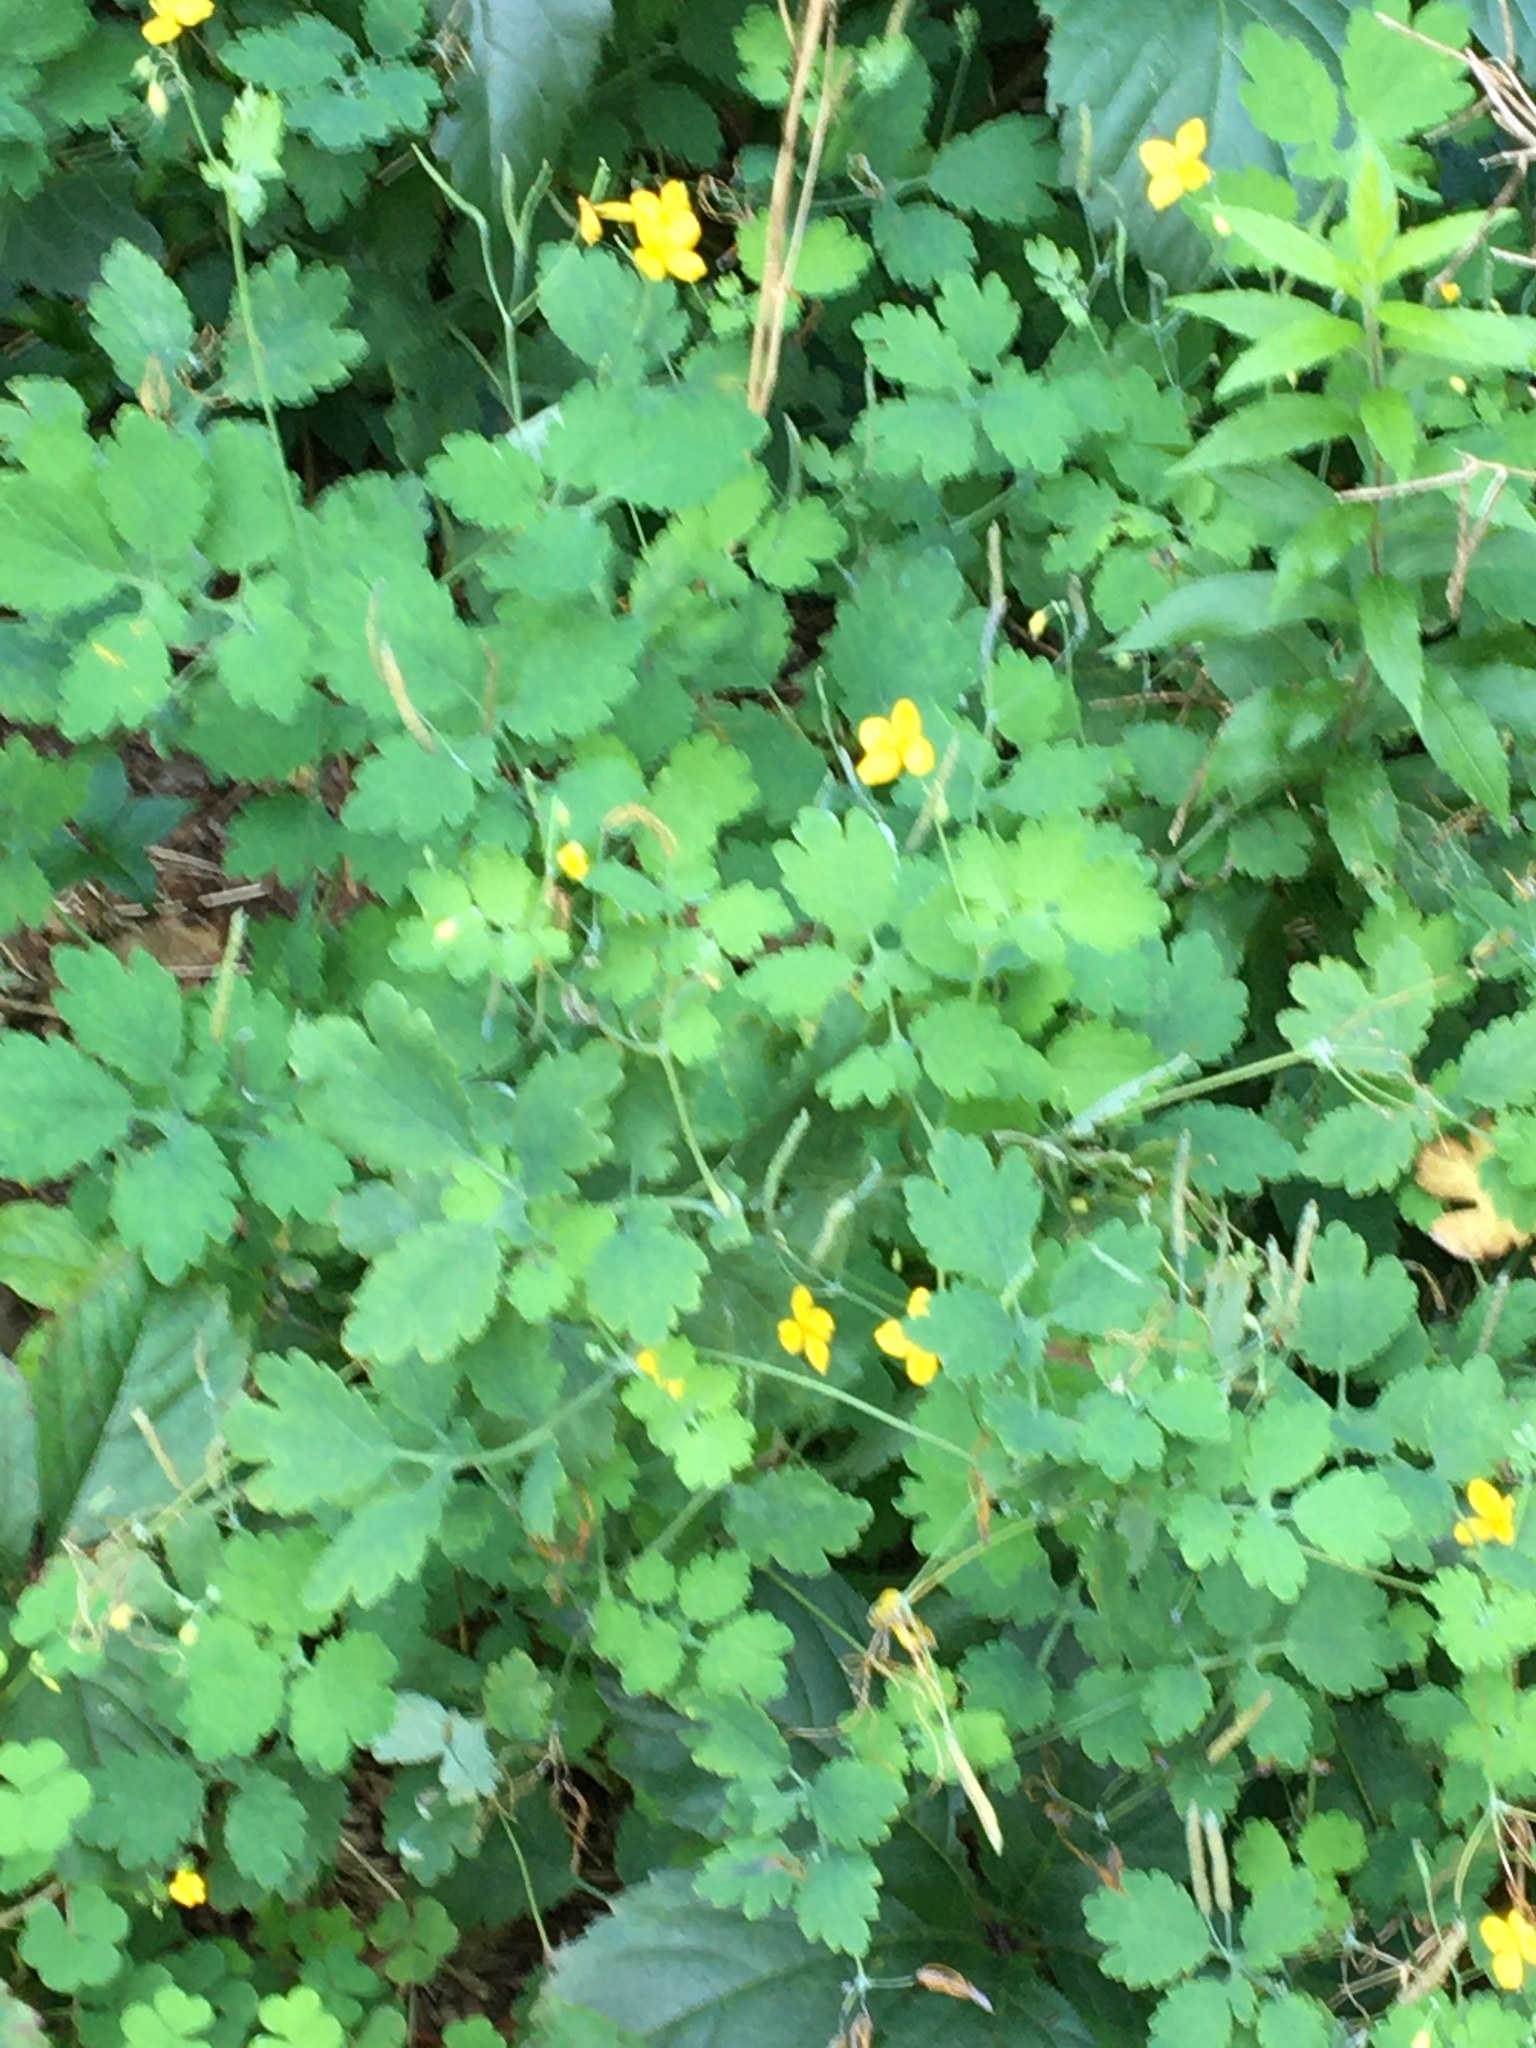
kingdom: Plantae
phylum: Tracheophyta
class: Magnoliopsida
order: Ranunculales
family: Papaveraceae
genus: Chelidonium
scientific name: Chelidonium majus
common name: Greater celandine
